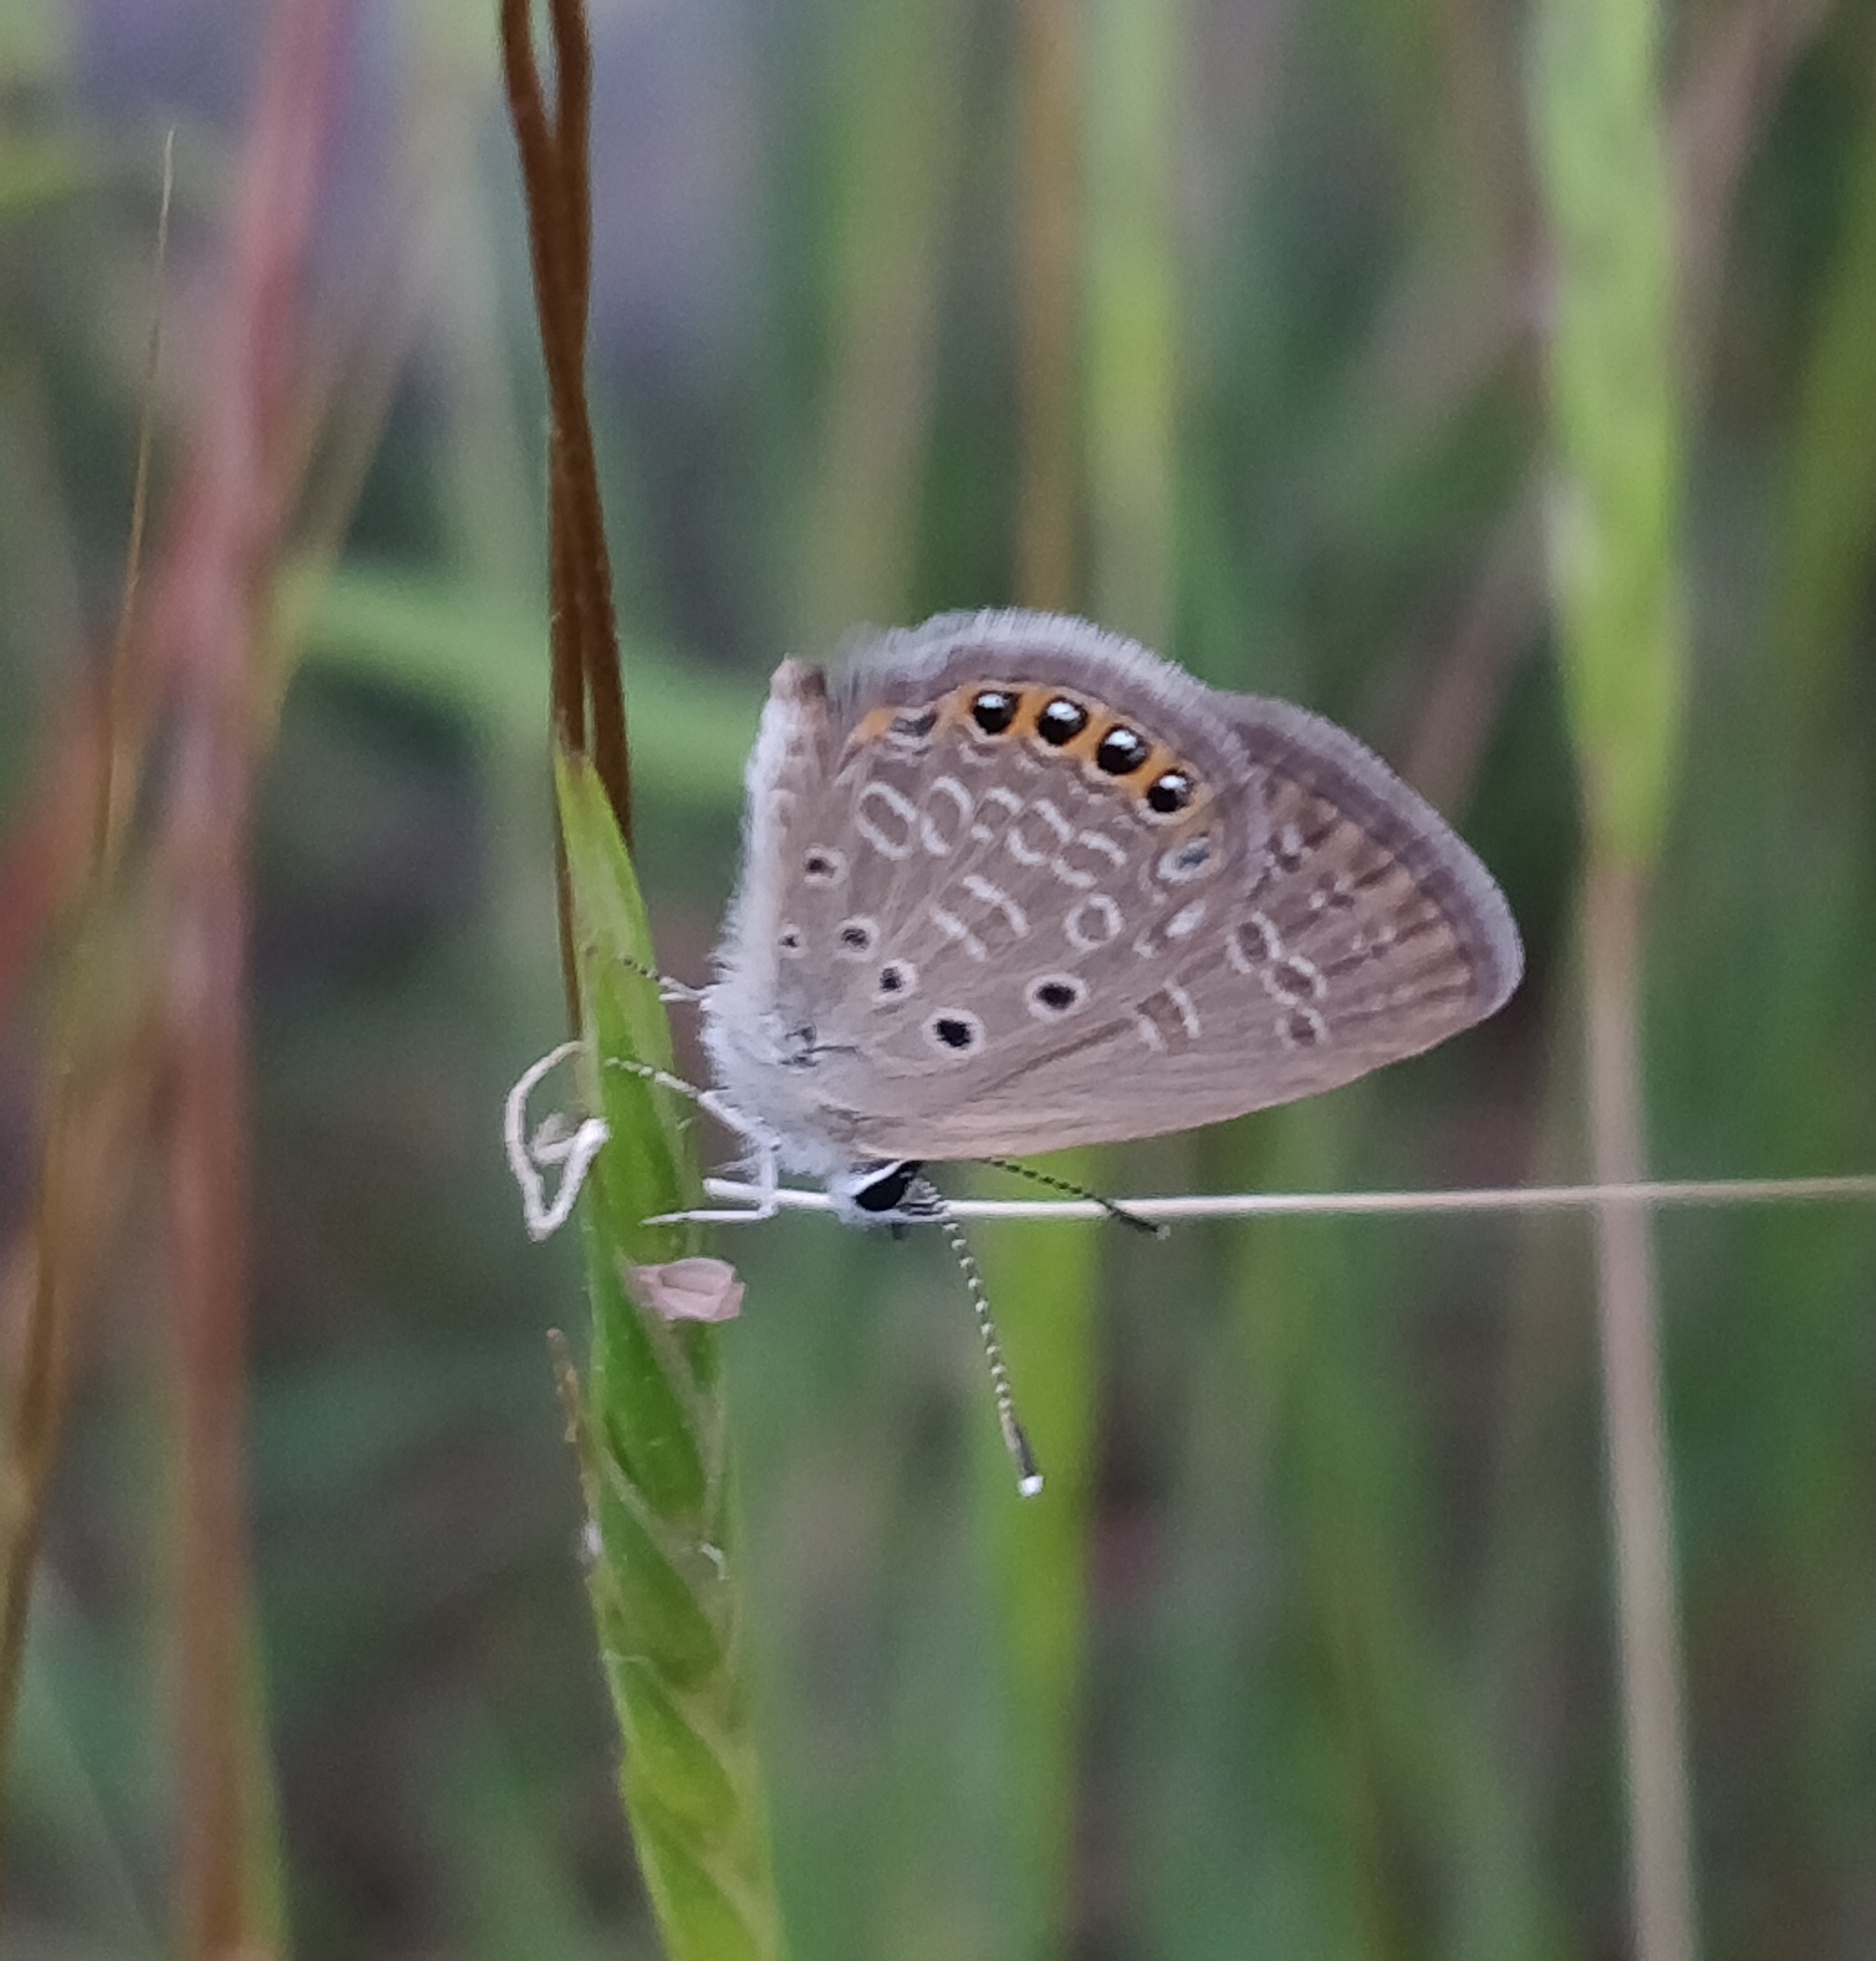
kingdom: Animalia
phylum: Arthropoda
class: Insecta
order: Lepidoptera
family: Lycaenidae
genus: Freyeria
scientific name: Freyeria putli
